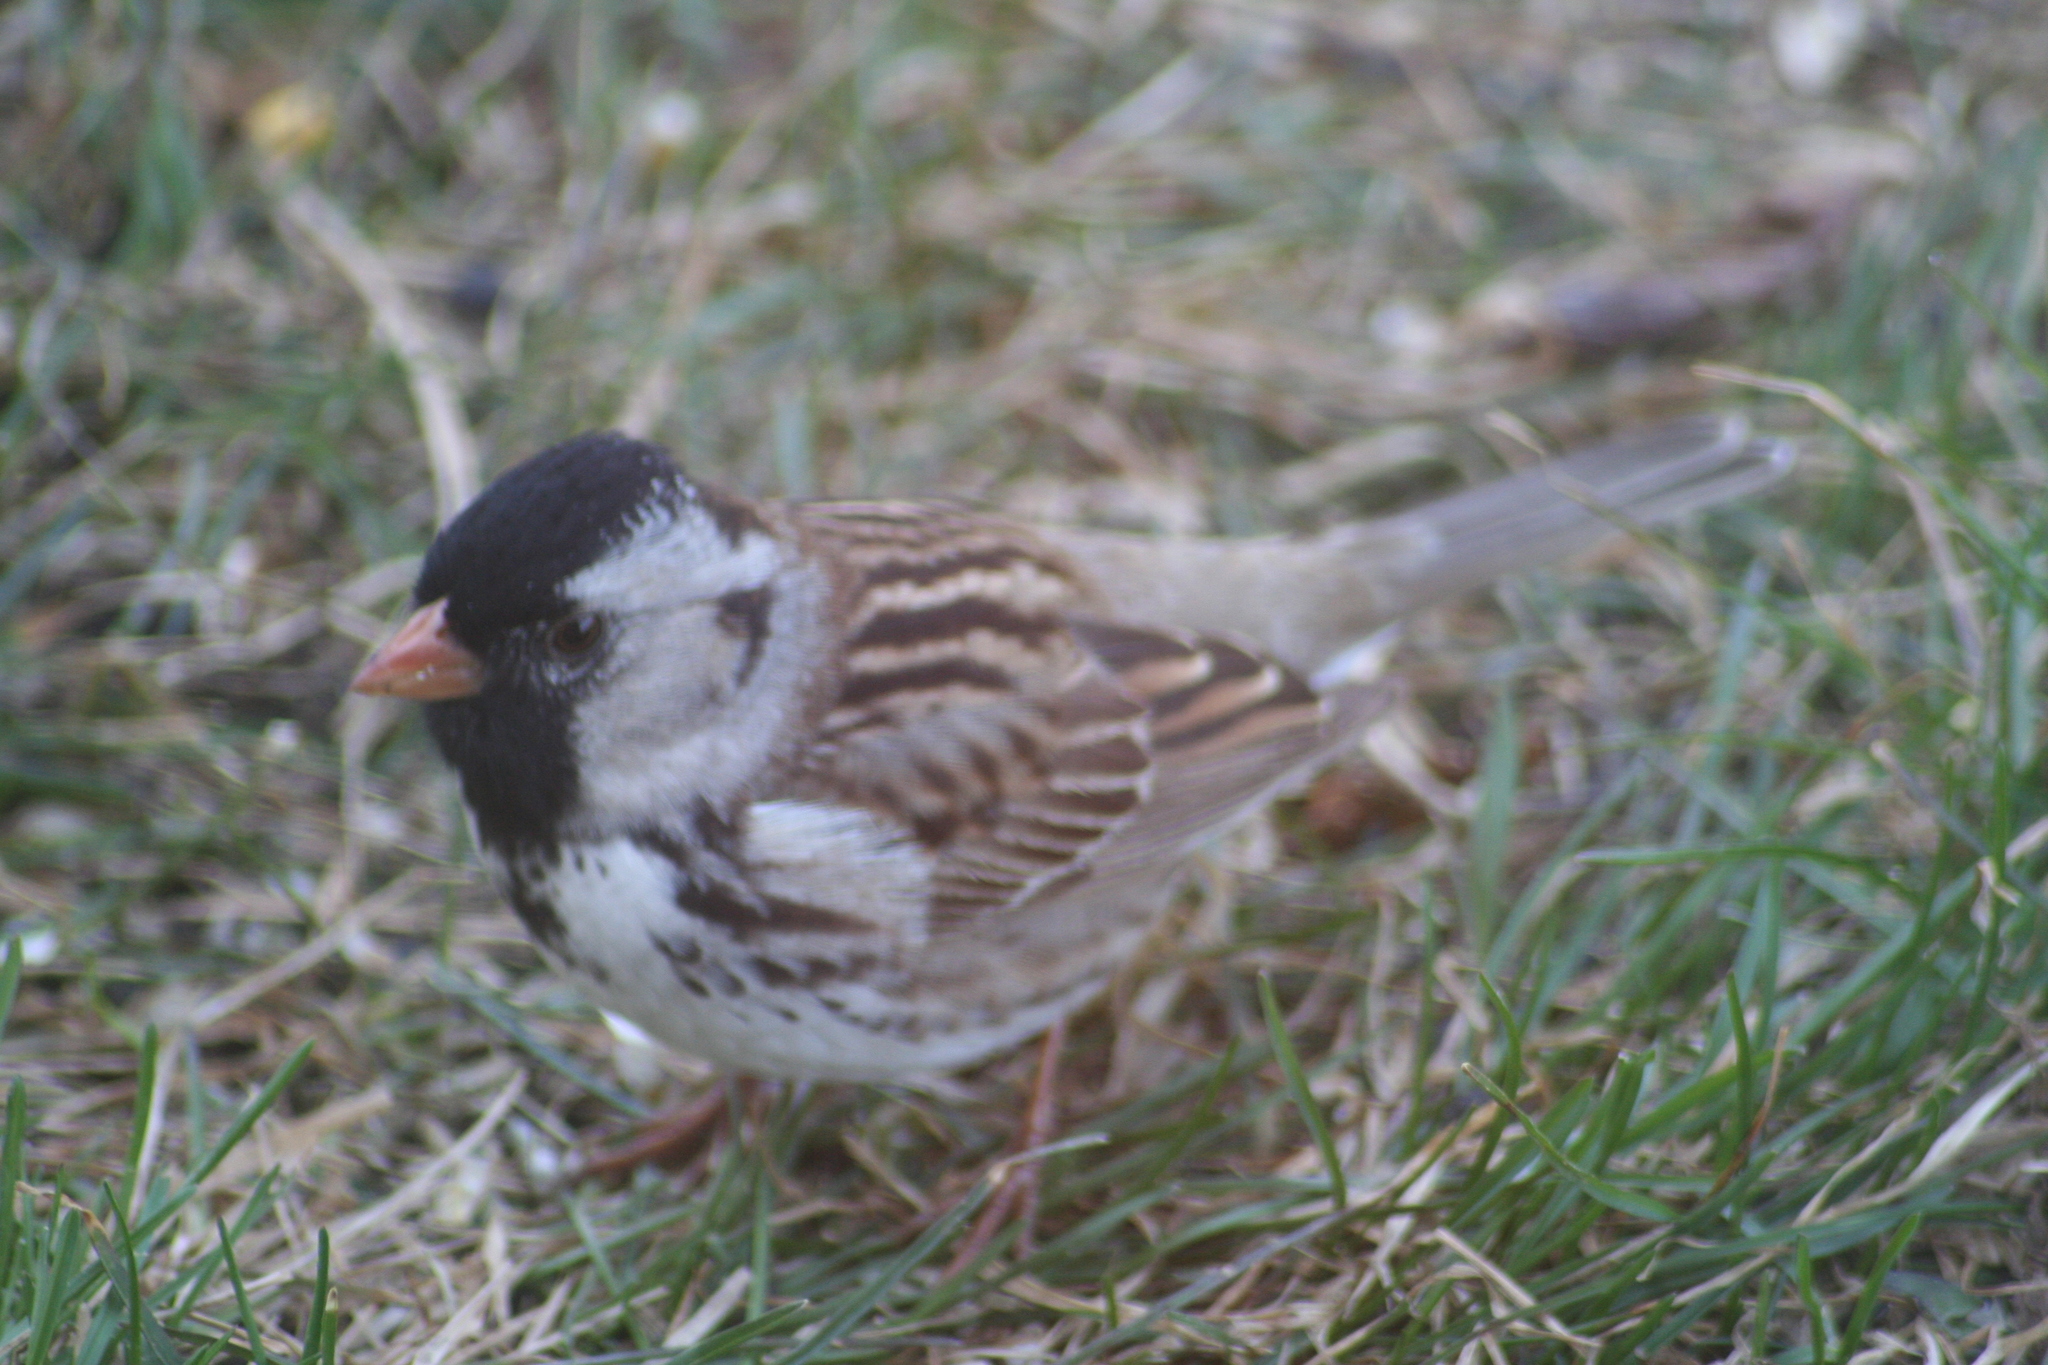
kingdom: Animalia
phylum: Chordata
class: Aves
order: Passeriformes
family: Passerellidae
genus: Zonotrichia
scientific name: Zonotrichia querula
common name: Harris's sparrow
